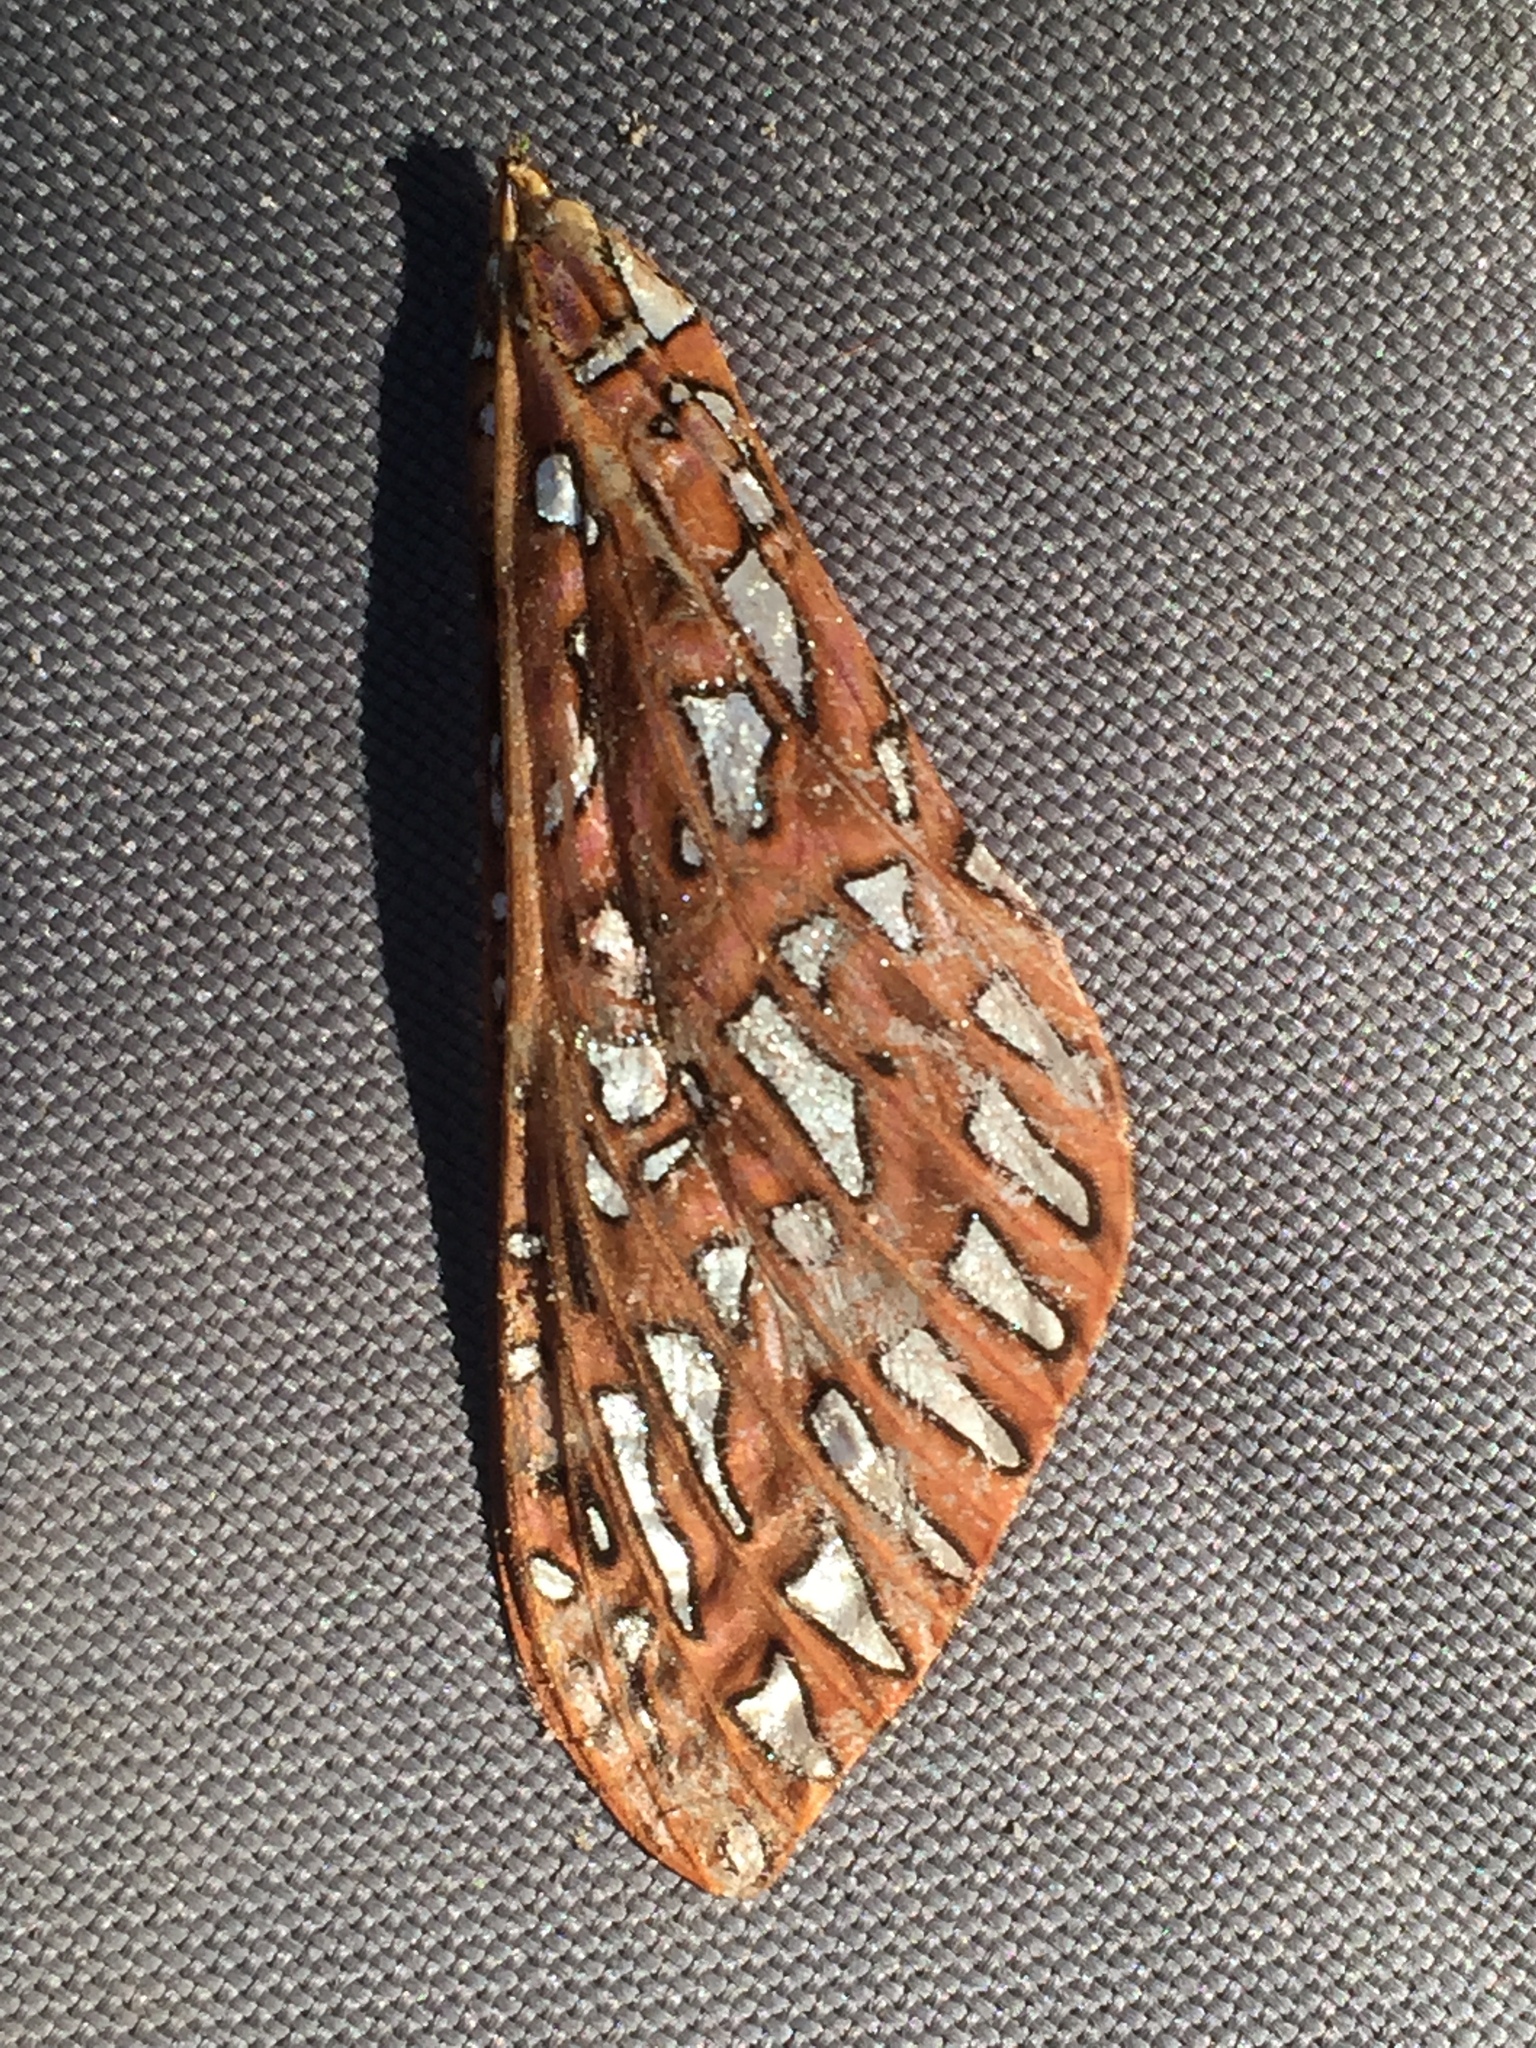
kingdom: Animalia
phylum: Arthropoda
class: Insecta
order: Lepidoptera
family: Hepialidae
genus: Leto
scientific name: Leto venus
